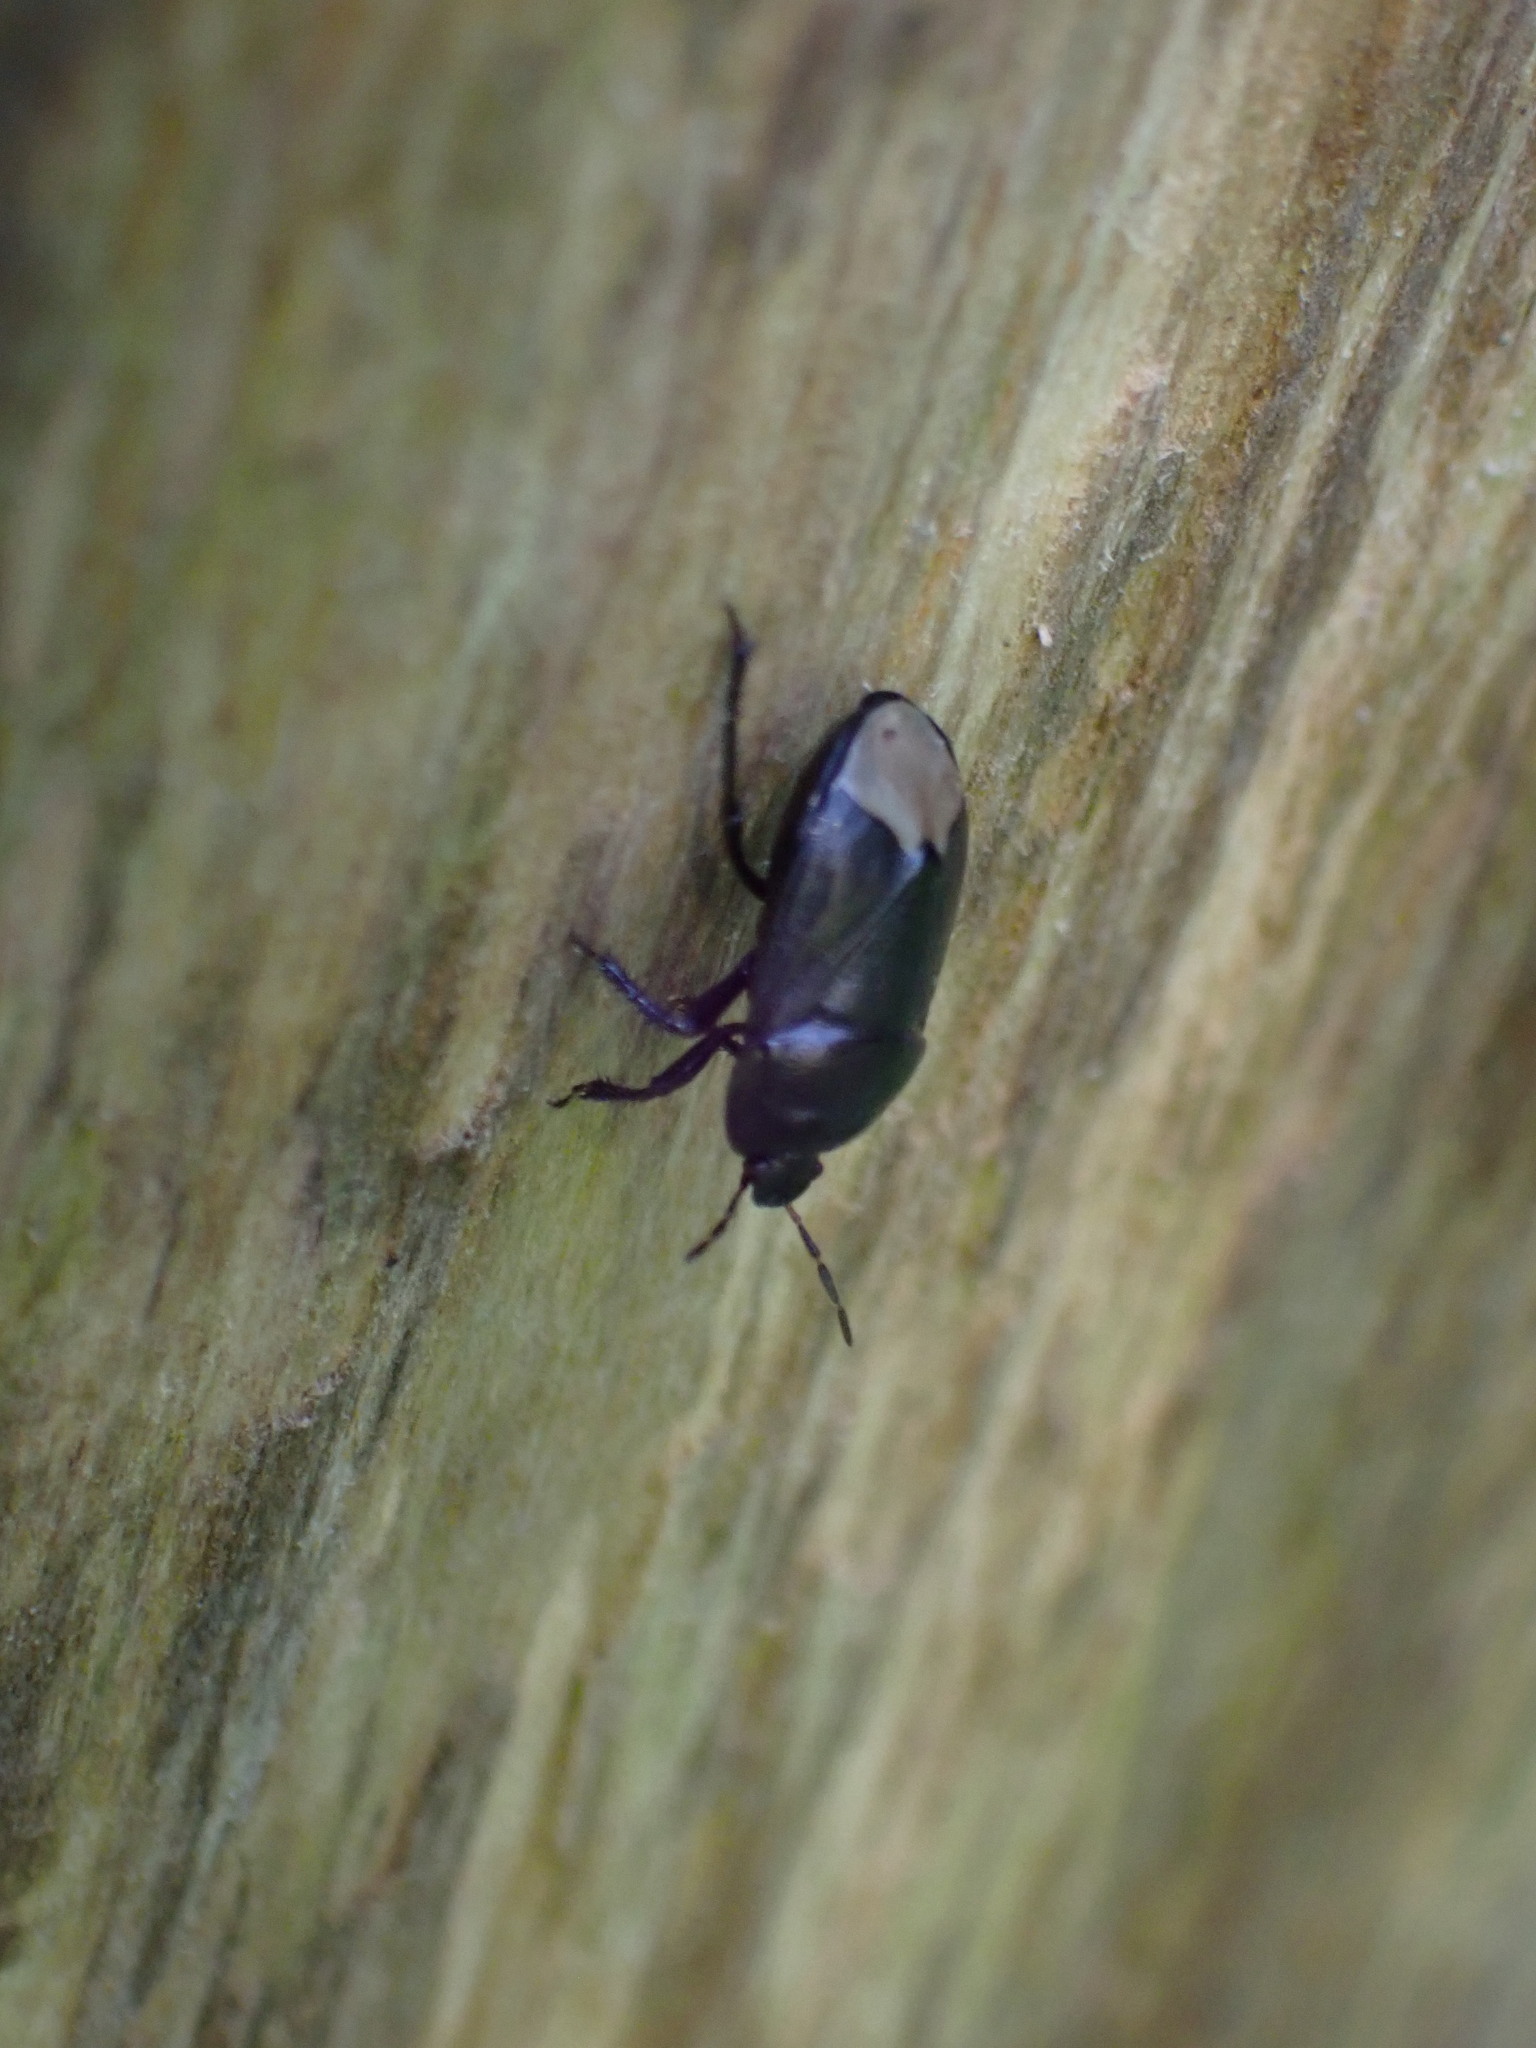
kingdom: Animalia
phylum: Arthropoda
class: Insecta
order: Hemiptera
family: Cydnidae
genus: Sehirus
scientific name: Sehirus luctuosus
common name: Forget-me-not shieldbug
